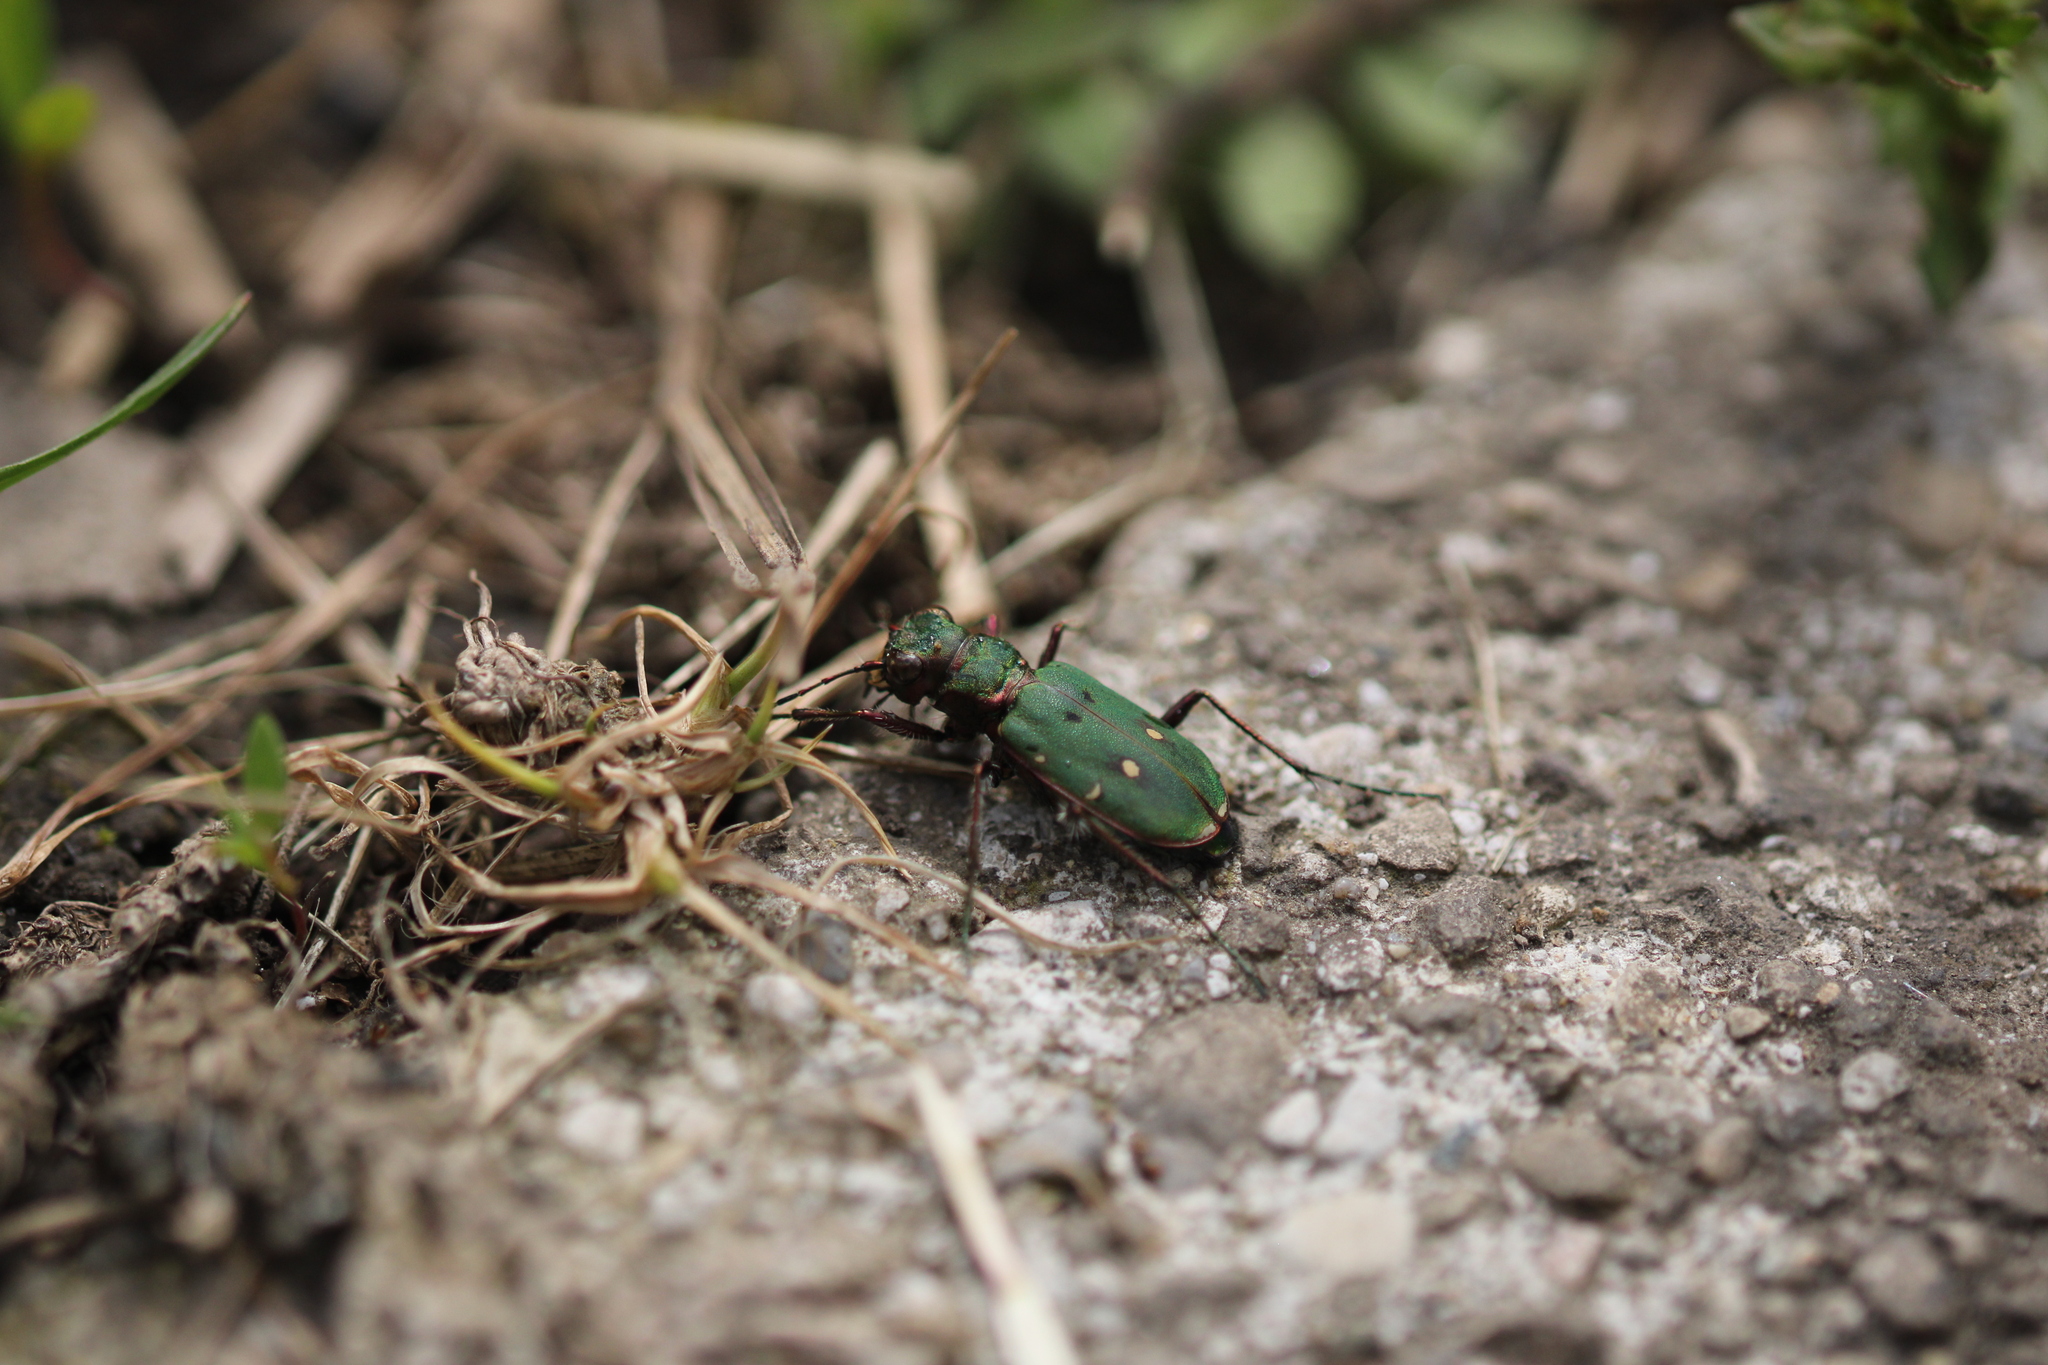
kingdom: Animalia
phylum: Arthropoda
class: Insecta
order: Coleoptera
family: Carabidae
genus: Cicindela
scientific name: Cicindela campestris
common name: Common tiger beetle
